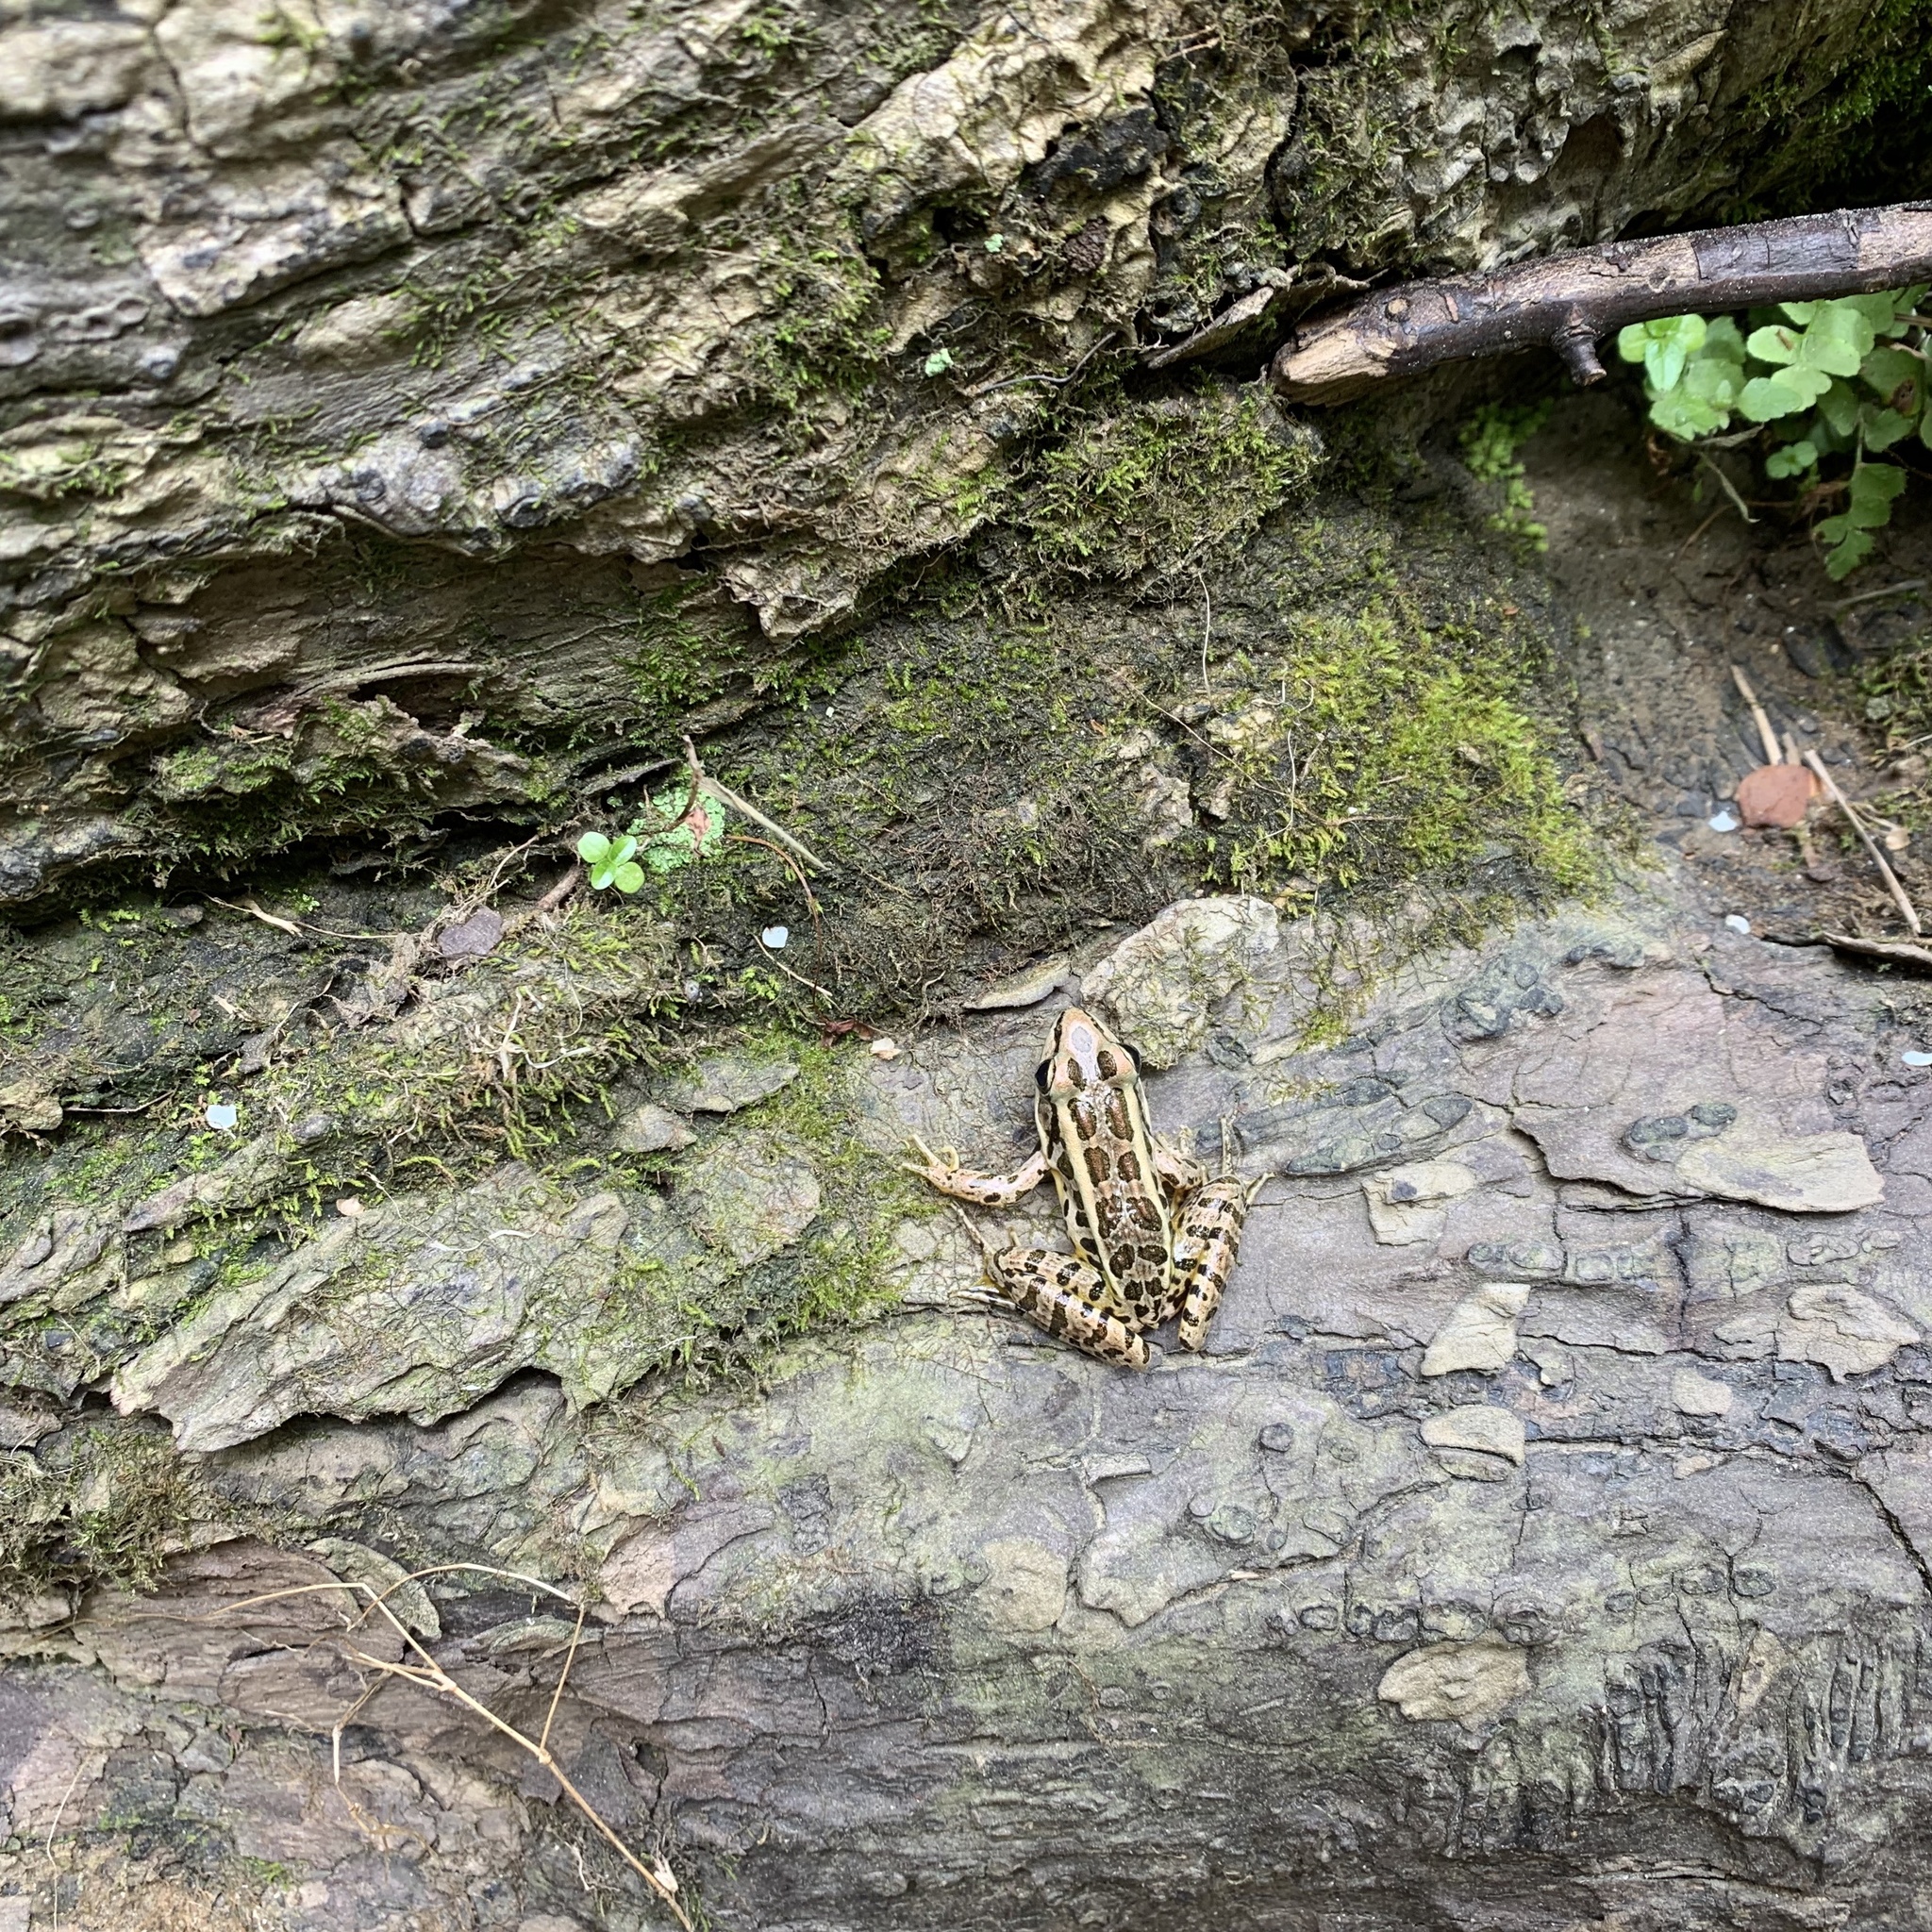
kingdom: Animalia
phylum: Chordata
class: Amphibia
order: Anura
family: Ranidae
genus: Lithobates
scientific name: Lithobates palustris
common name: Pickerel frog
